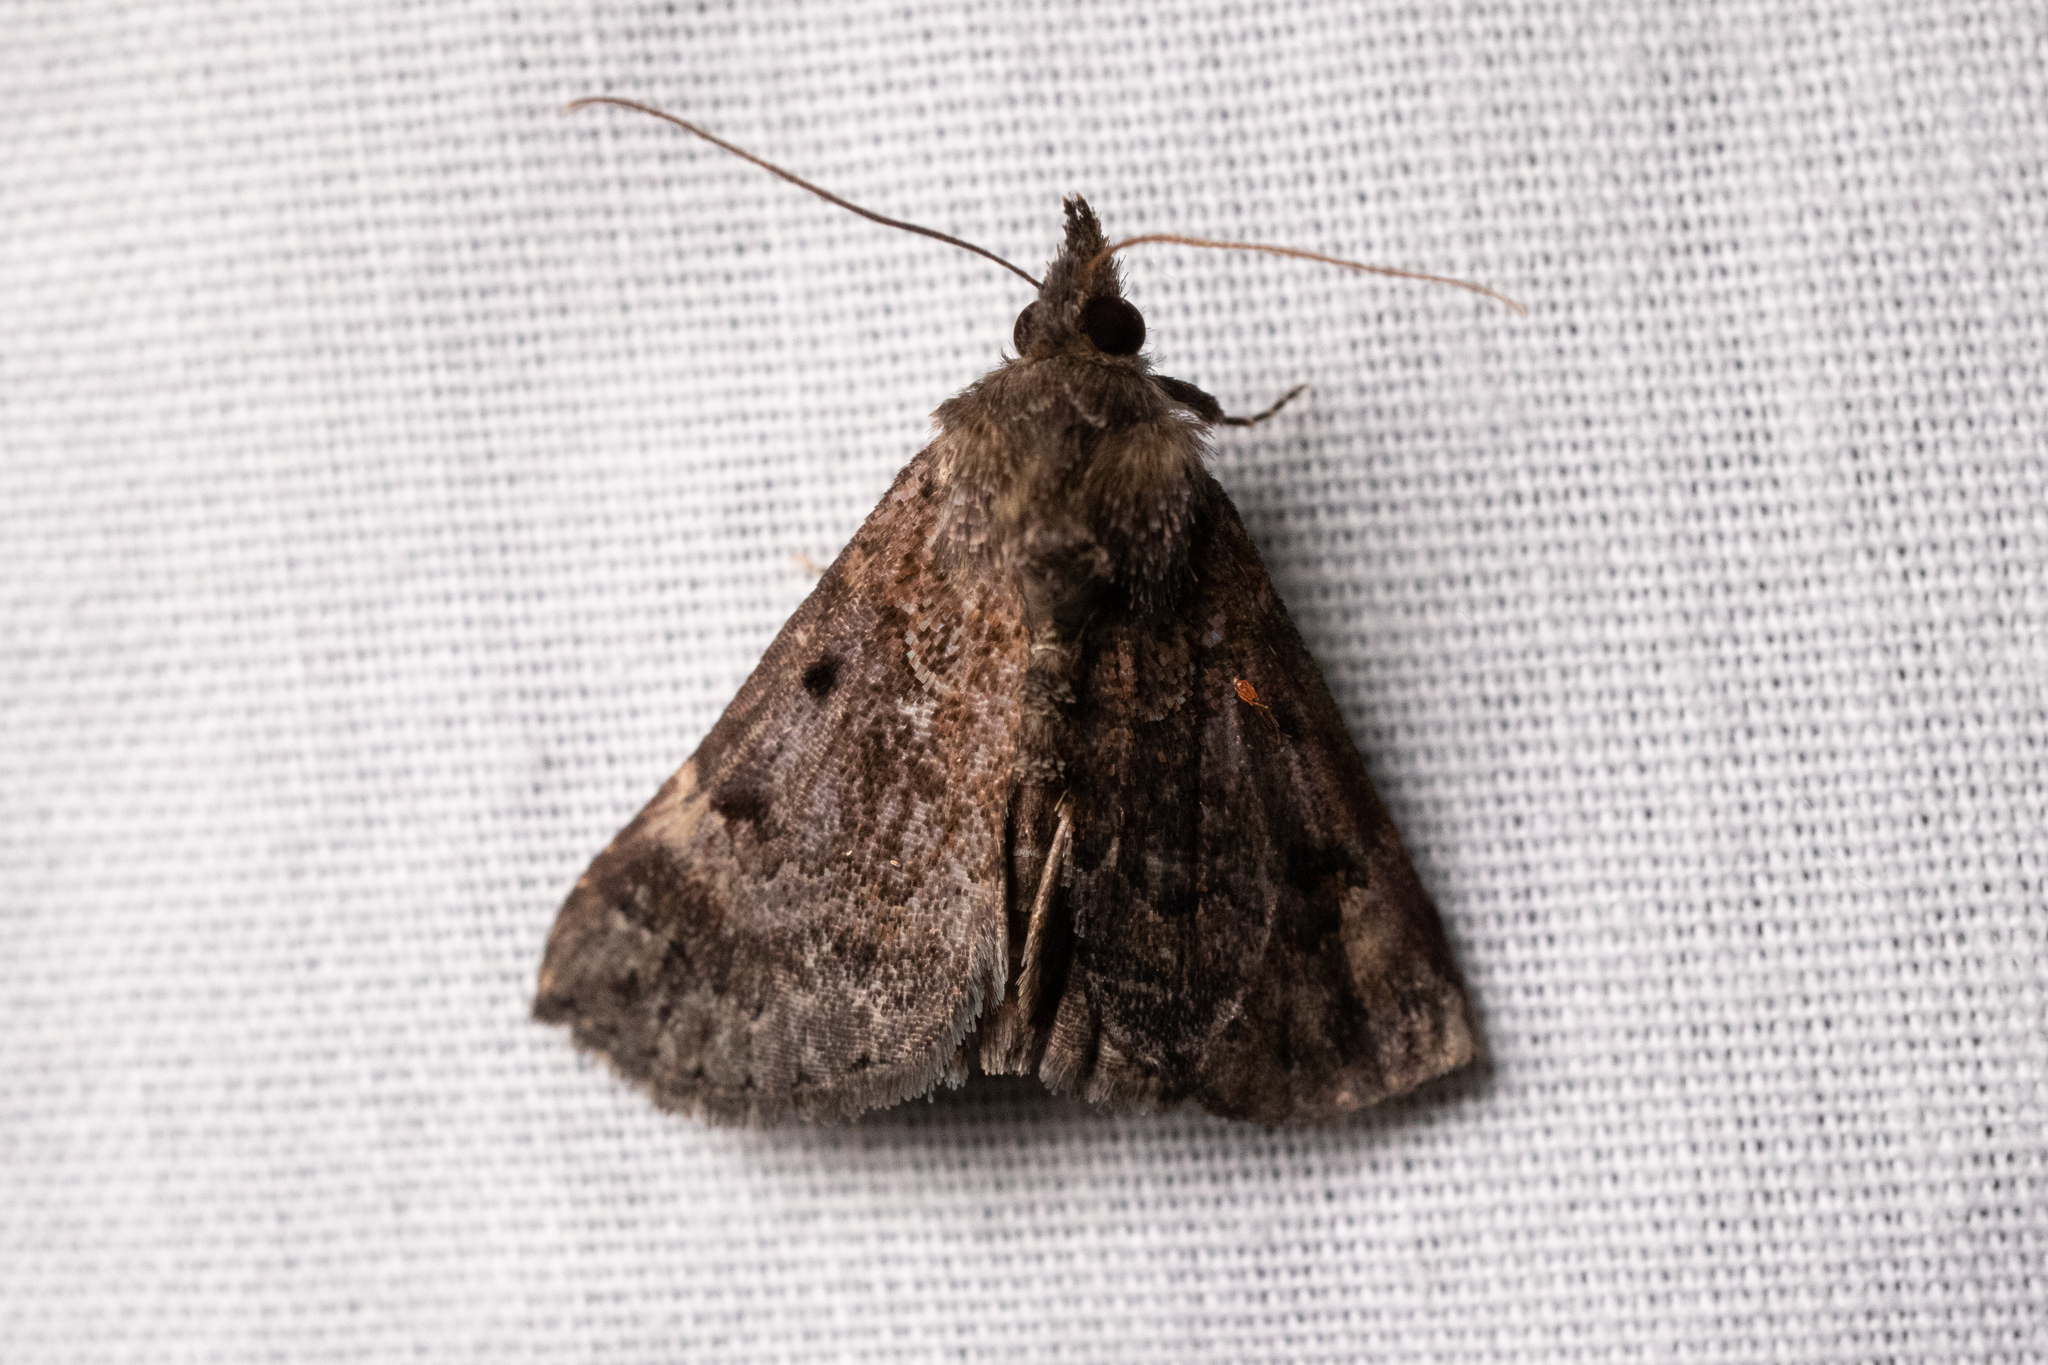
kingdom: Animalia
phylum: Arthropoda
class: Insecta
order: Lepidoptera
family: Erebidae
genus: Hypena
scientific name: Hypena palparia
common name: Mottled bomolocha moth
